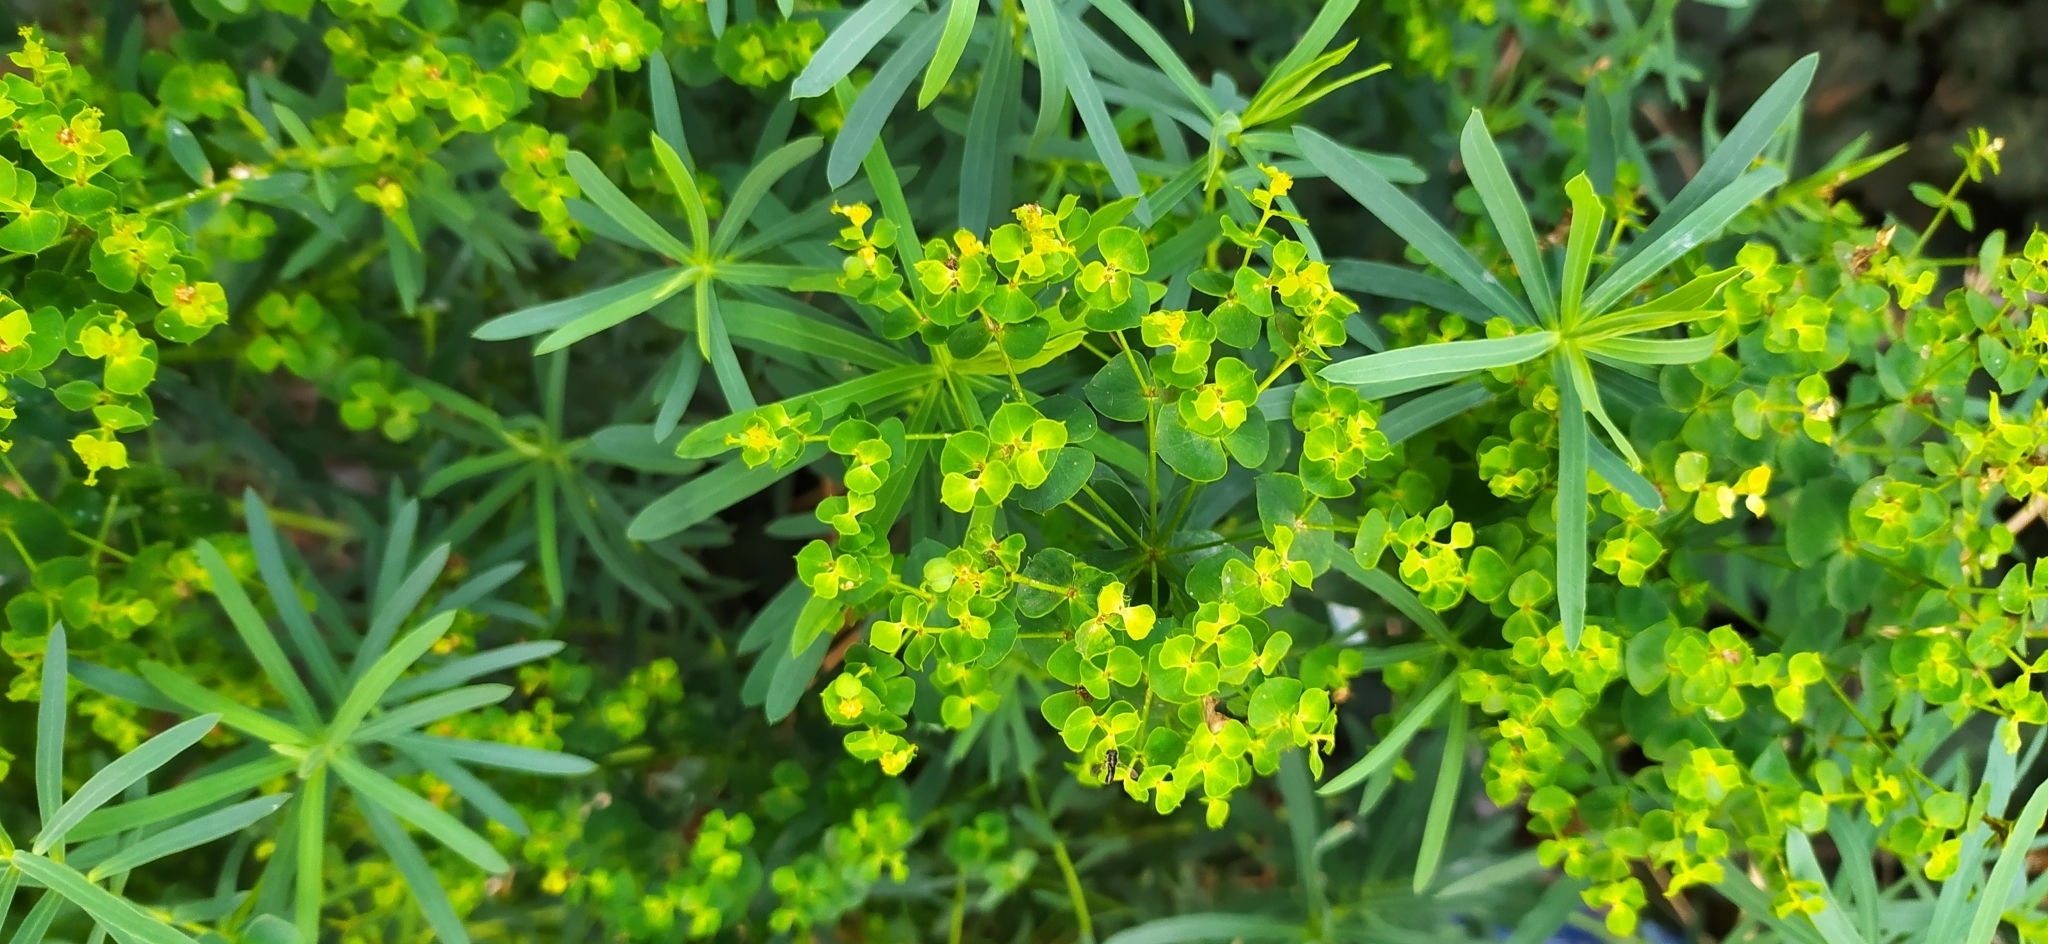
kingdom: Plantae
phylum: Tracheophyta
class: Magnoliopsida
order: Malpighiales
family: Euphorbiaceae
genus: Euphorbia
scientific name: Euphorbia virgata
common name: Leafy spurge
